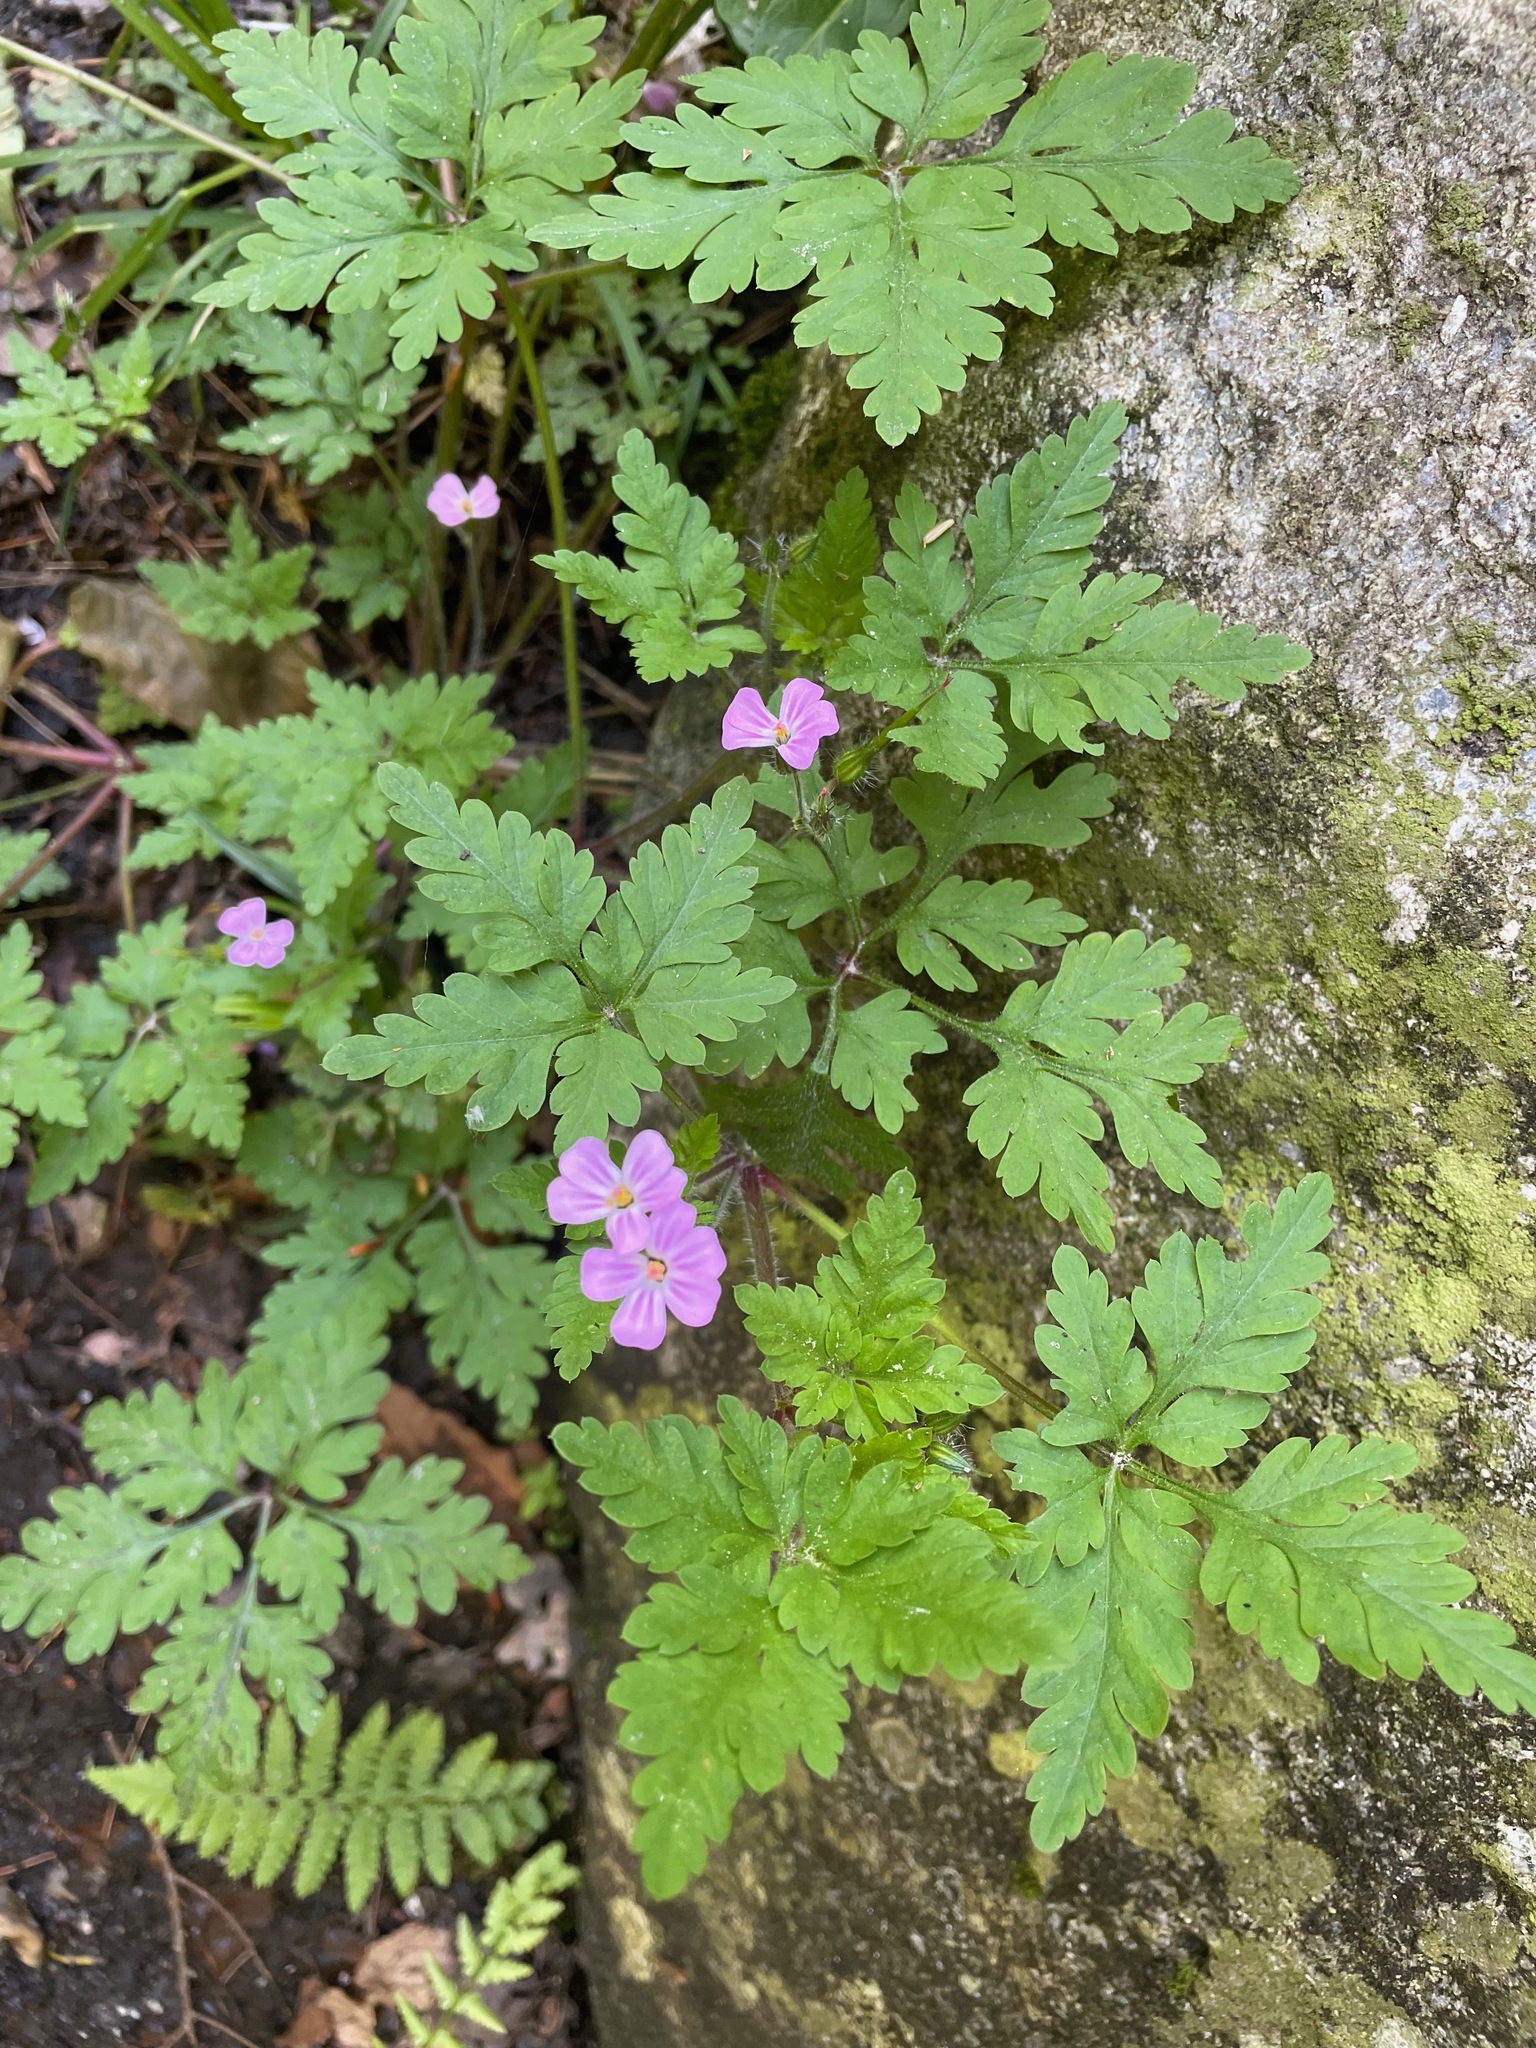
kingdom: Plantae
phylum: Tracheophyta
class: Magnoliopsida
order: Geraniales
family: Geraniaceae
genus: Geranium
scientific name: Geranium robertianum
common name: Herb-robert
